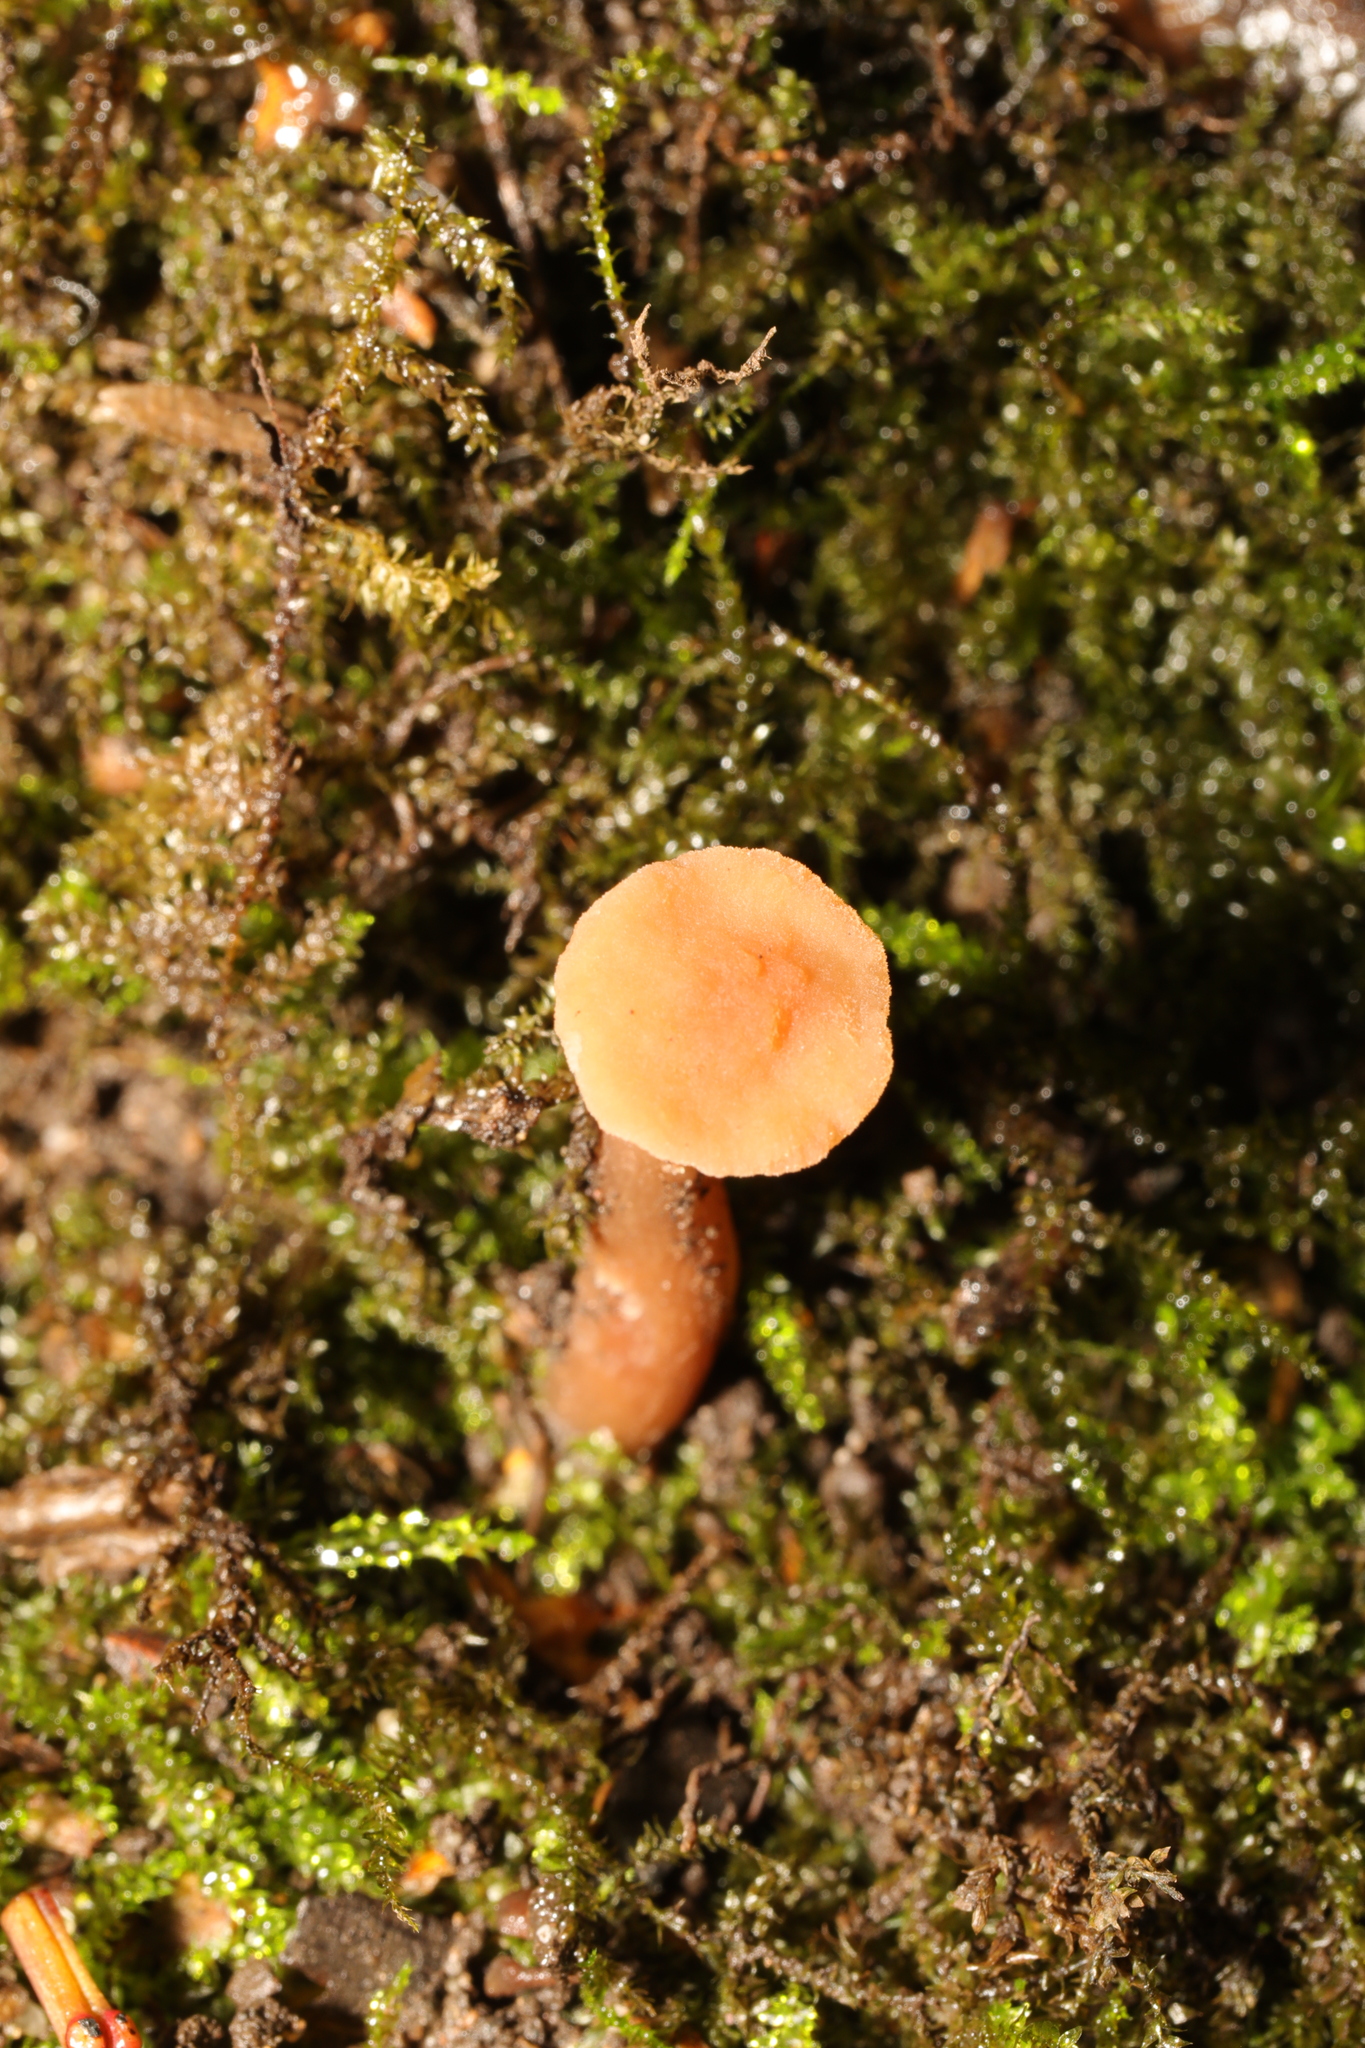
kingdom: Fungi
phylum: Basidiomycota
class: Agaricomycetes
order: Agaricales
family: Hydnangiaceae
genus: Laccaria
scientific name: Laccaria laccata
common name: Deceiver
